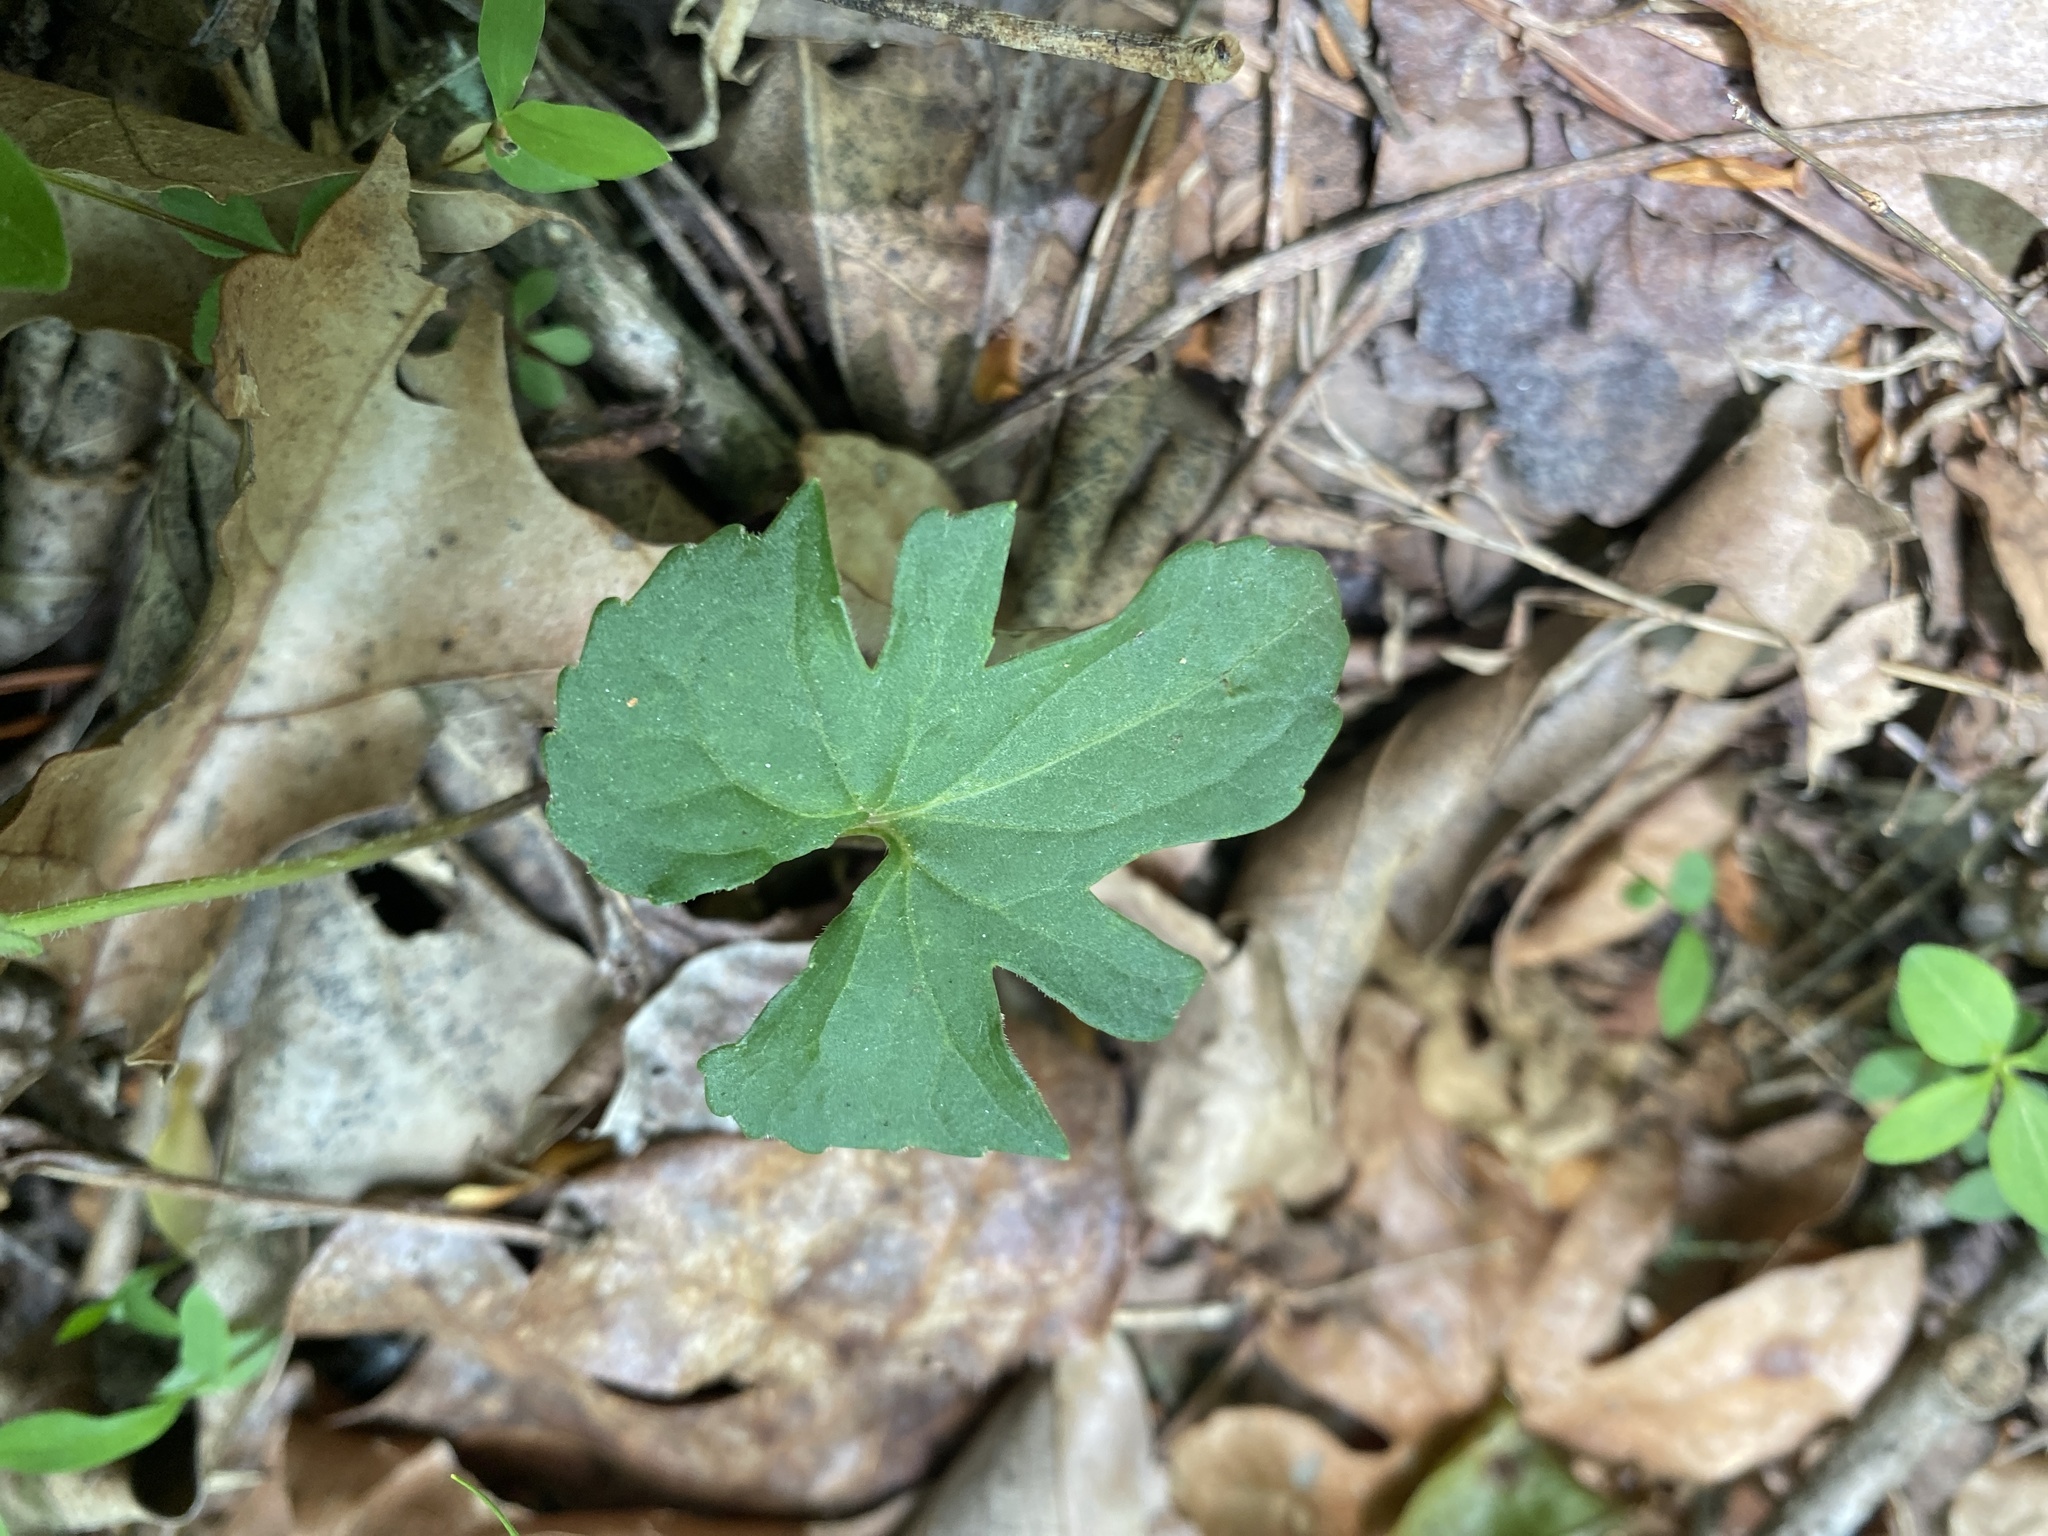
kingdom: Plantae
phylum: Tracheophyta
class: Magnoliopsida
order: Malpighiales
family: Violaceae
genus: Viola
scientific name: Viola palmata
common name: Early blue violet
